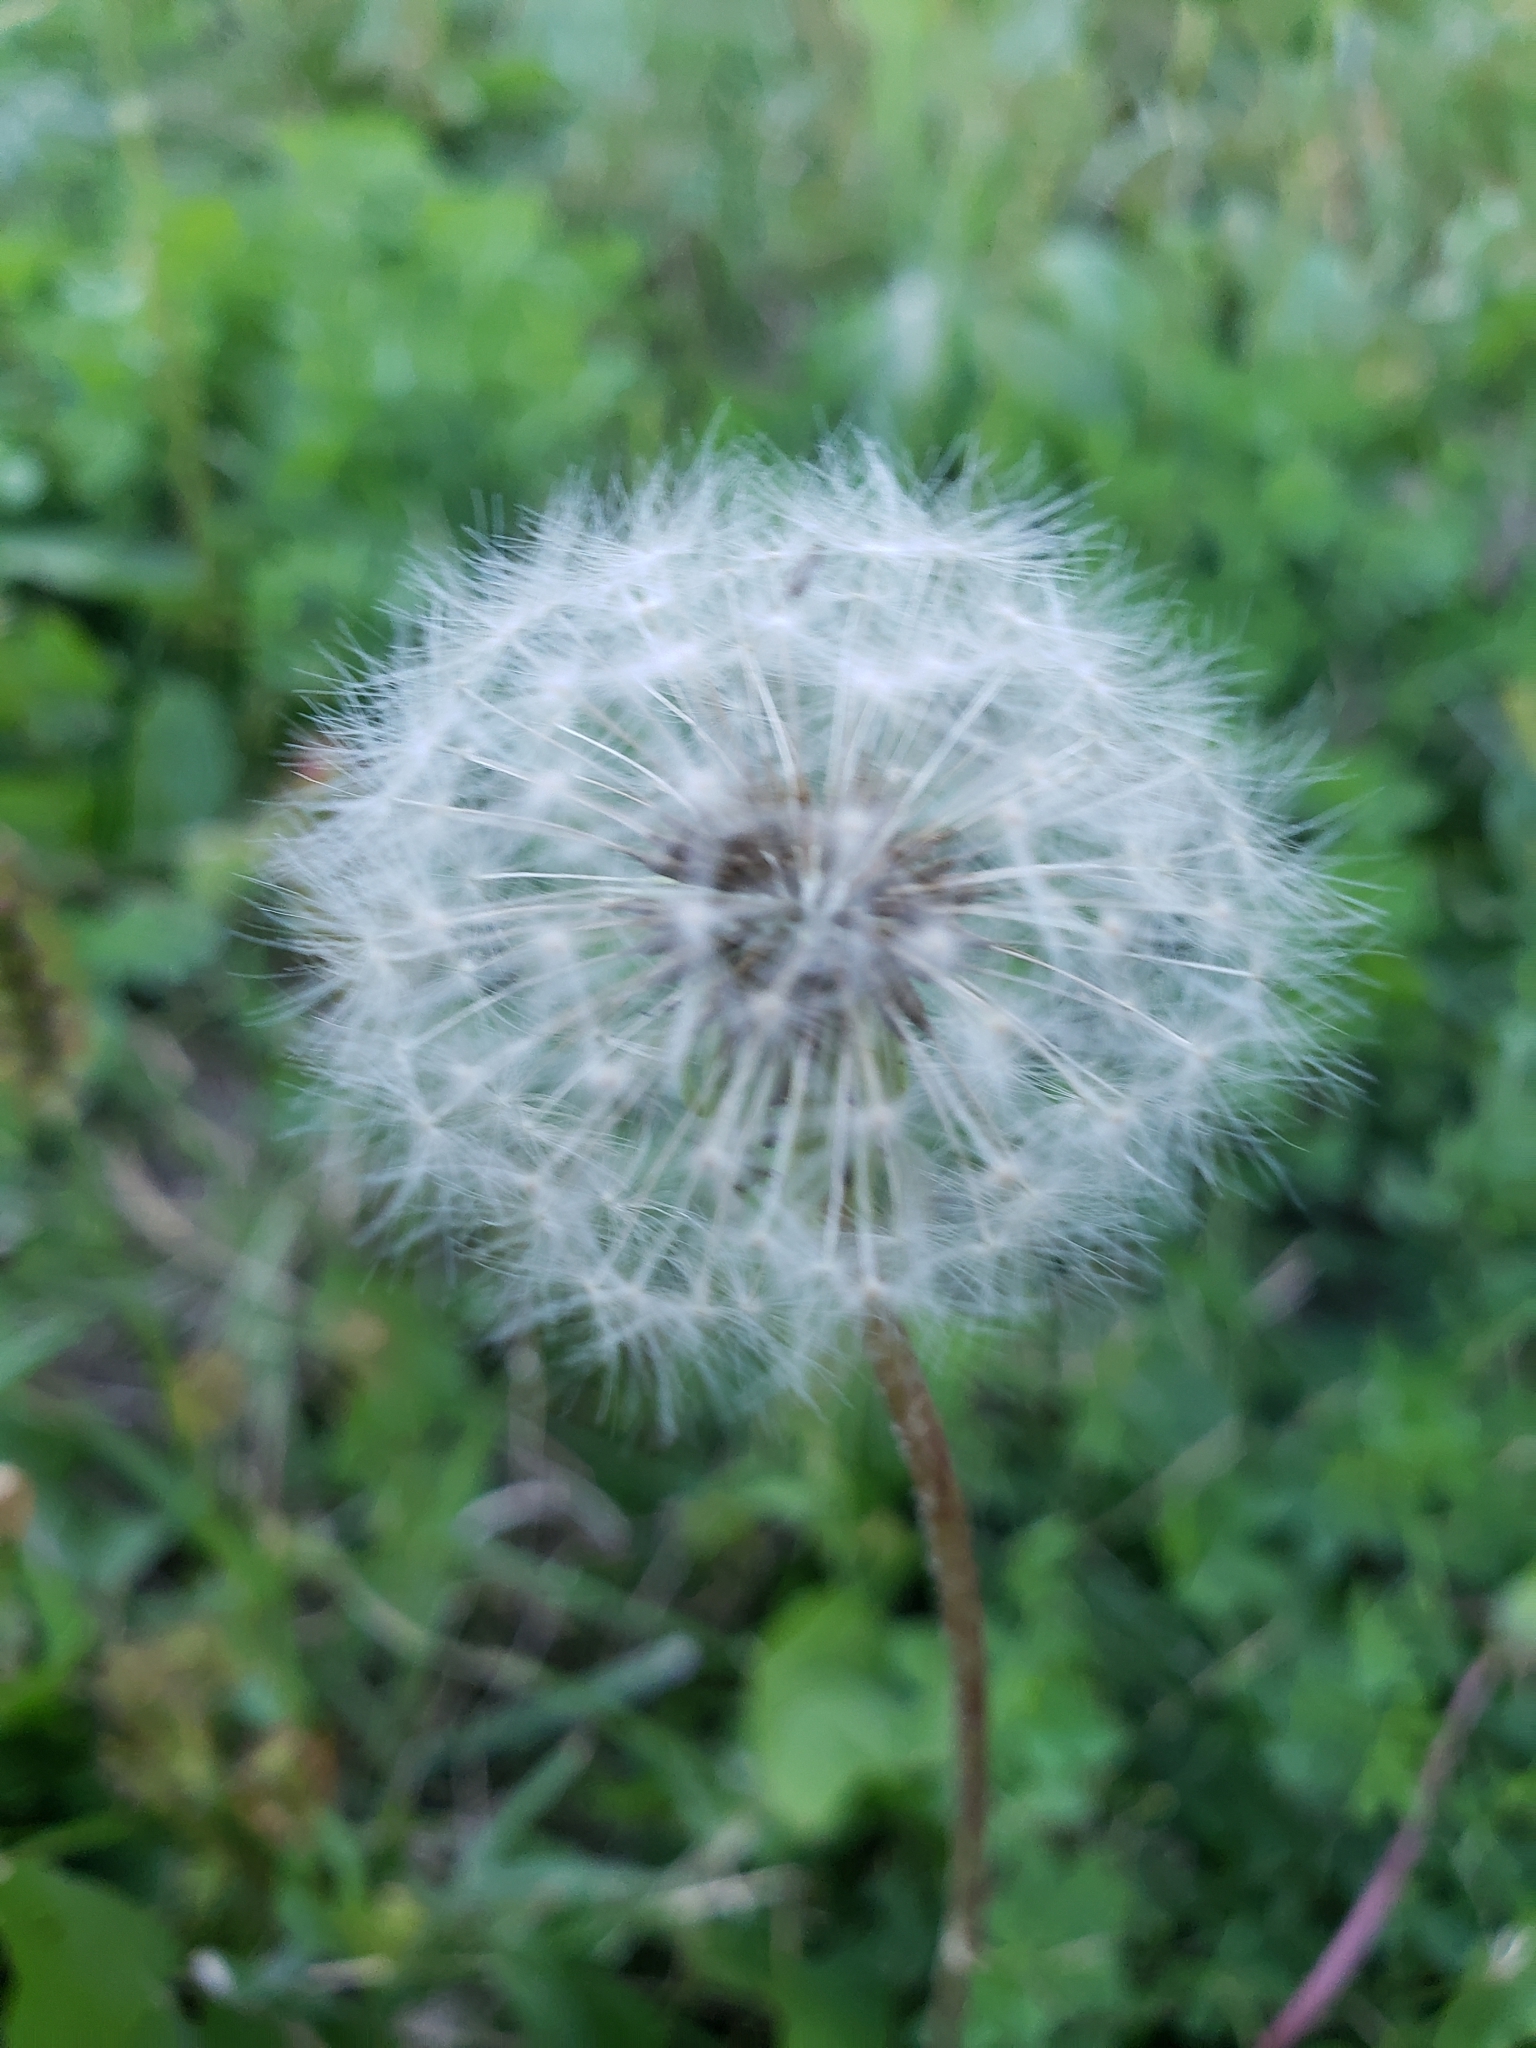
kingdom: Plantae
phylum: Tracheophyta
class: Magnoliopsida
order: Asterales
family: Asteraceae
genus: Taraxacum
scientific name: Taraxacum officinale
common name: Common dandelion
